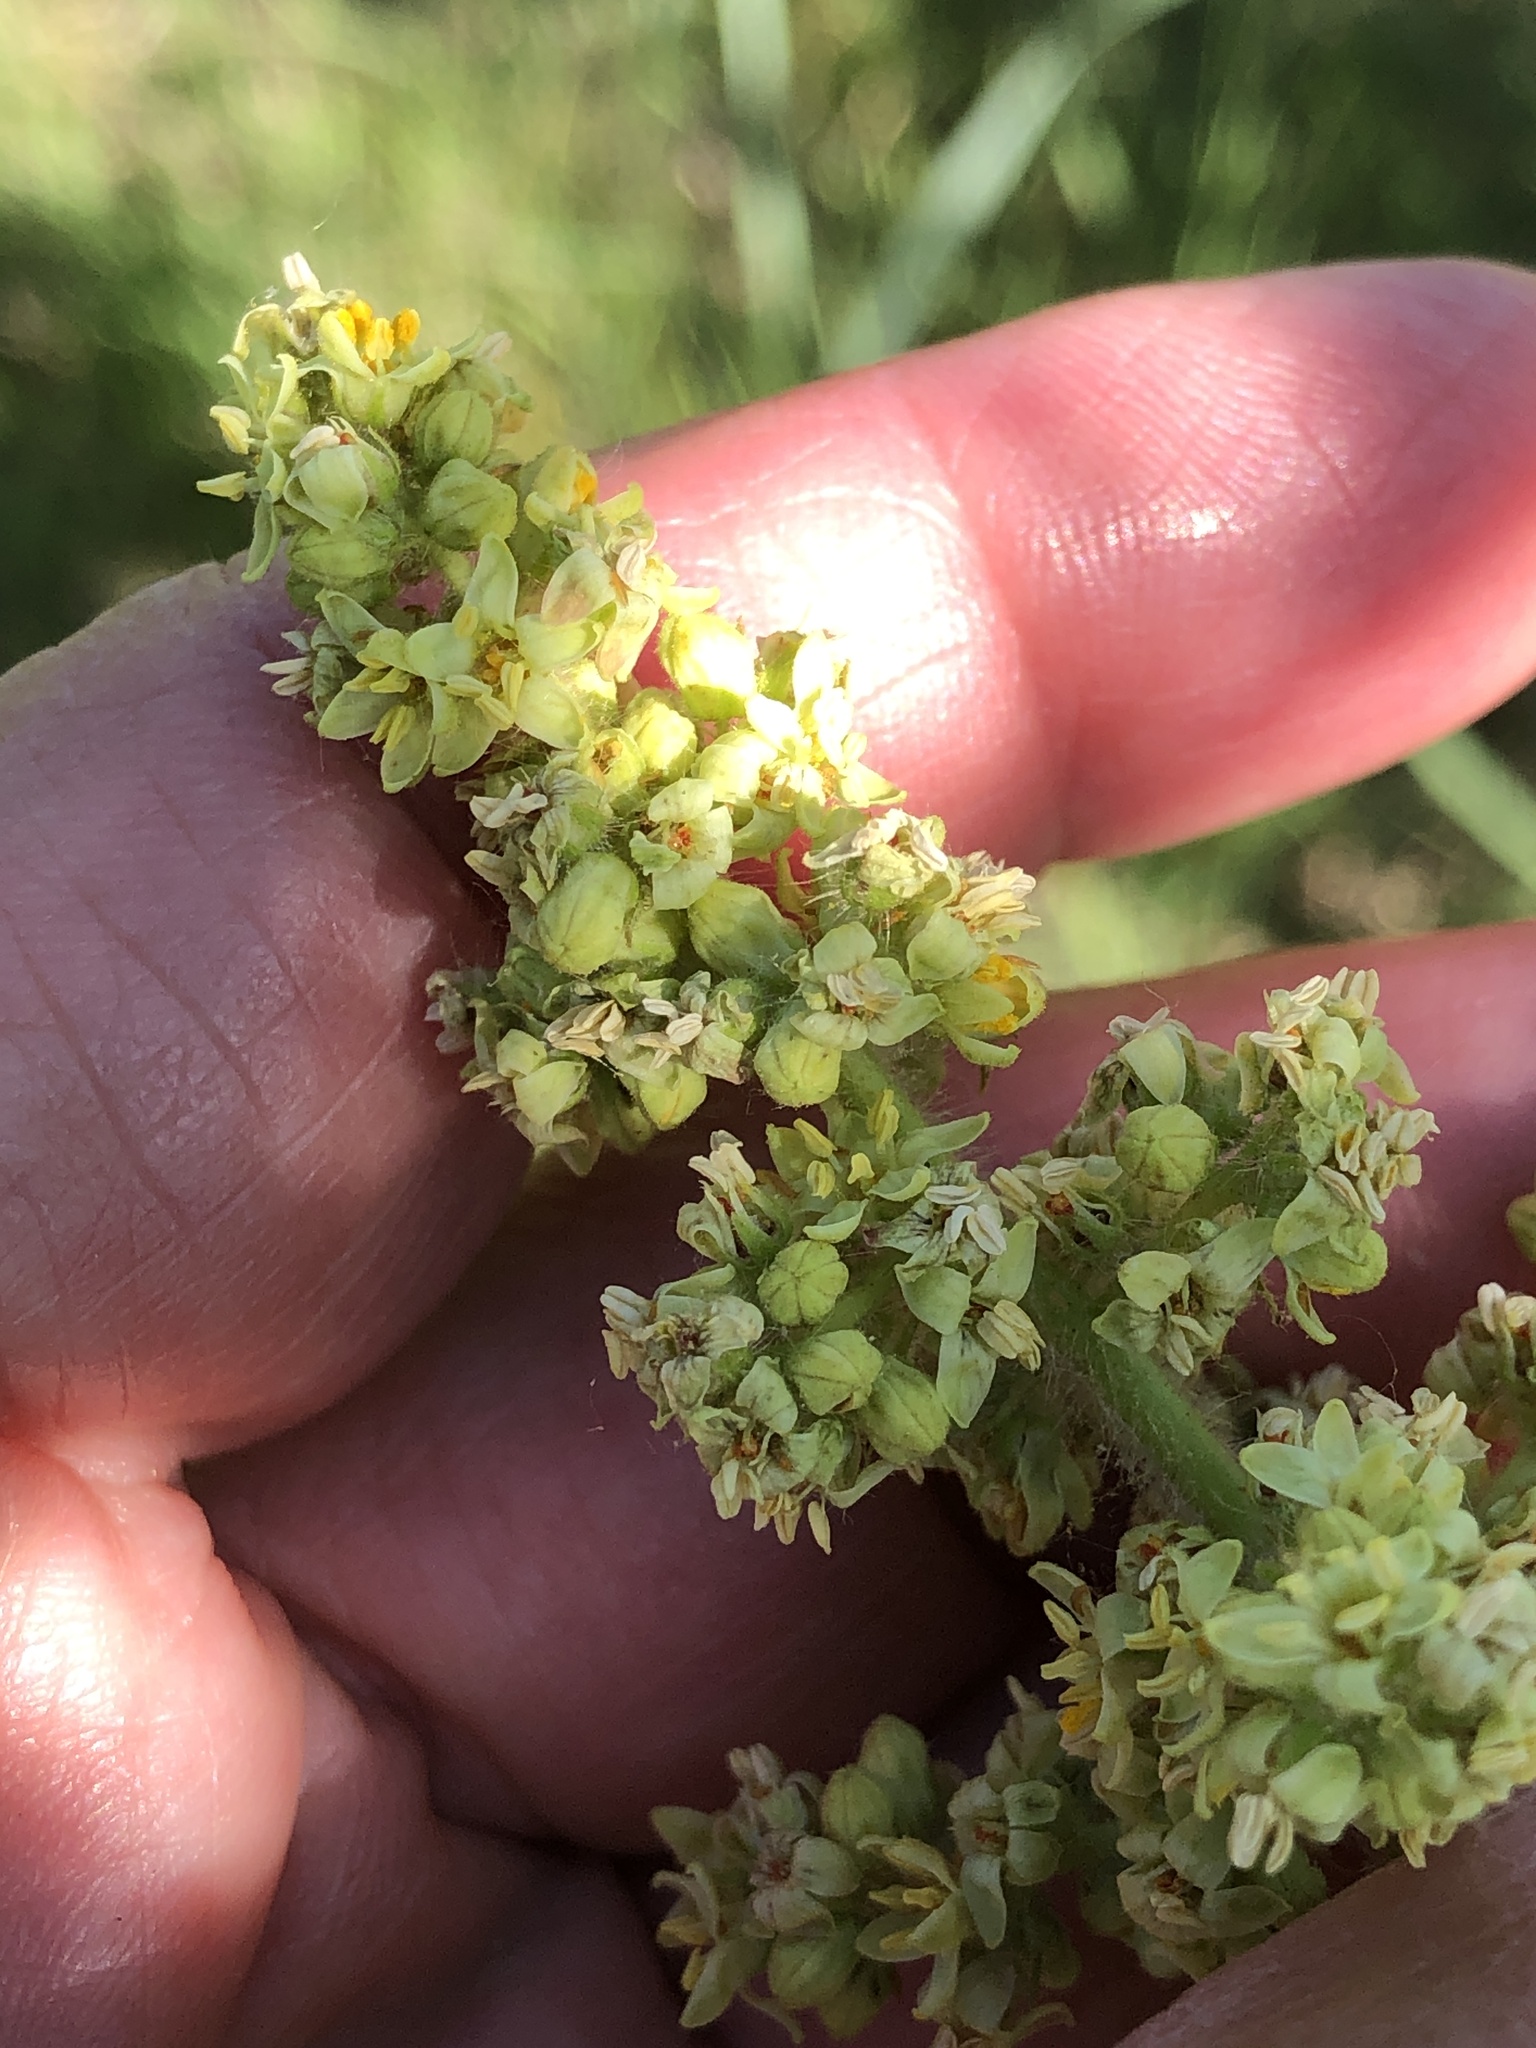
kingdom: Plantae
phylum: Tracheophyta
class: Magnoliopsida
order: Sapindales
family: Anacardiaceae
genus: Rhus
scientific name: Rhus typhina
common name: Staghorn sumac
